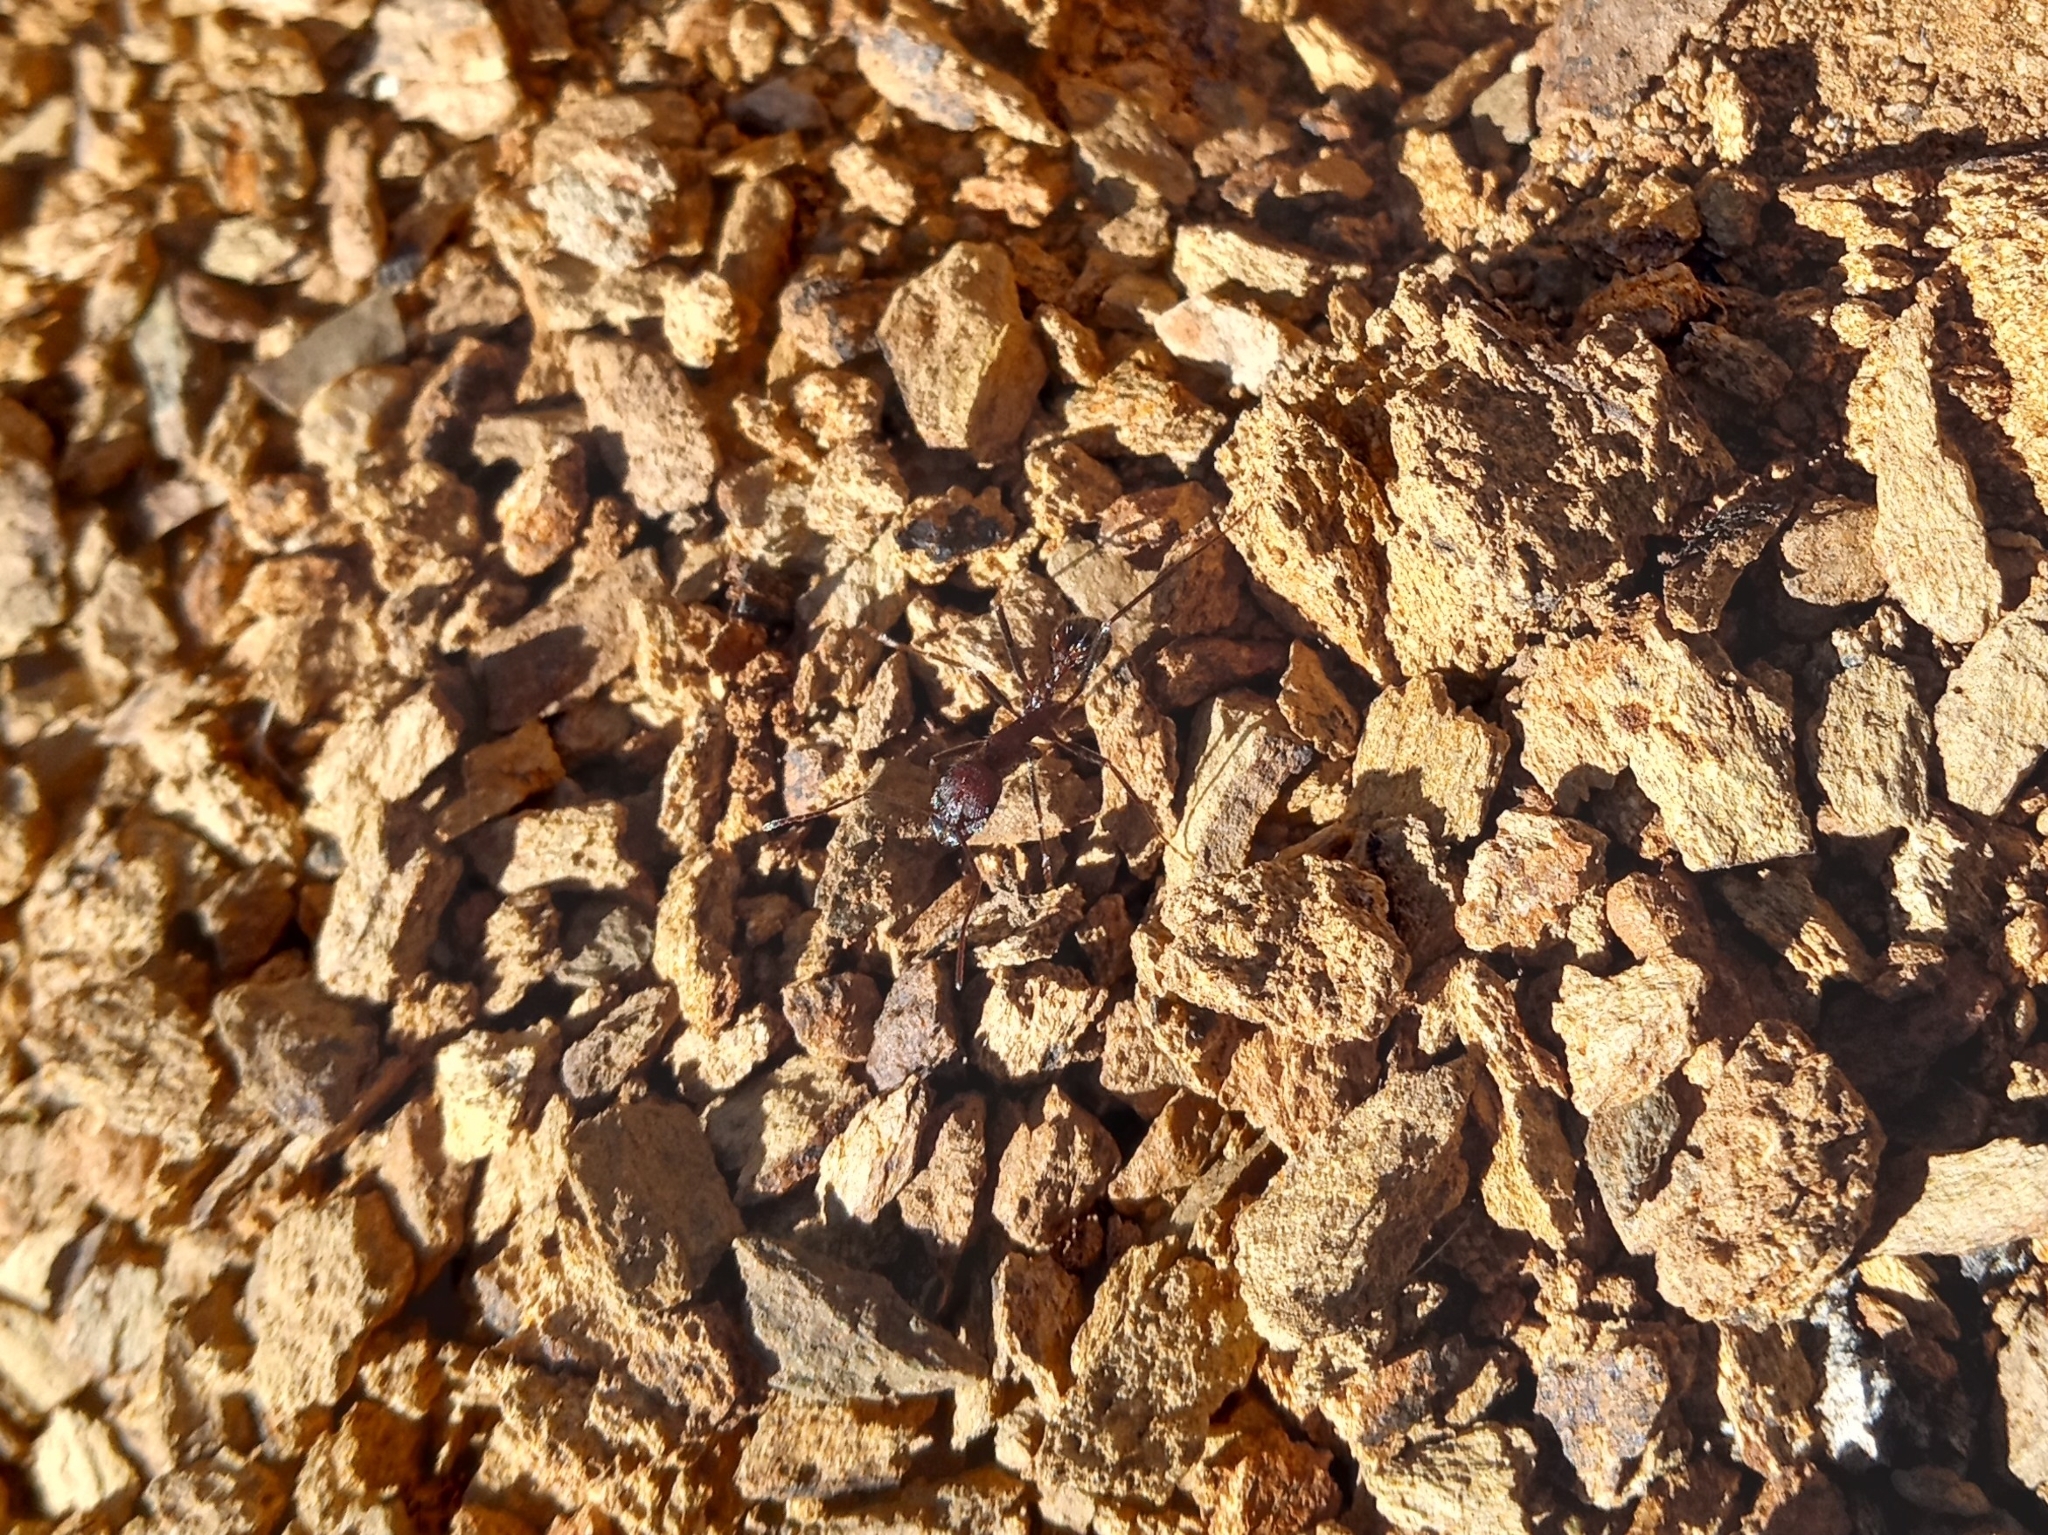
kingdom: Animalia
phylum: Arthropoda
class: Insecta
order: Hymenoptera
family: Formicidae
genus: Novomessor
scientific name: Novomessor albisetosa
